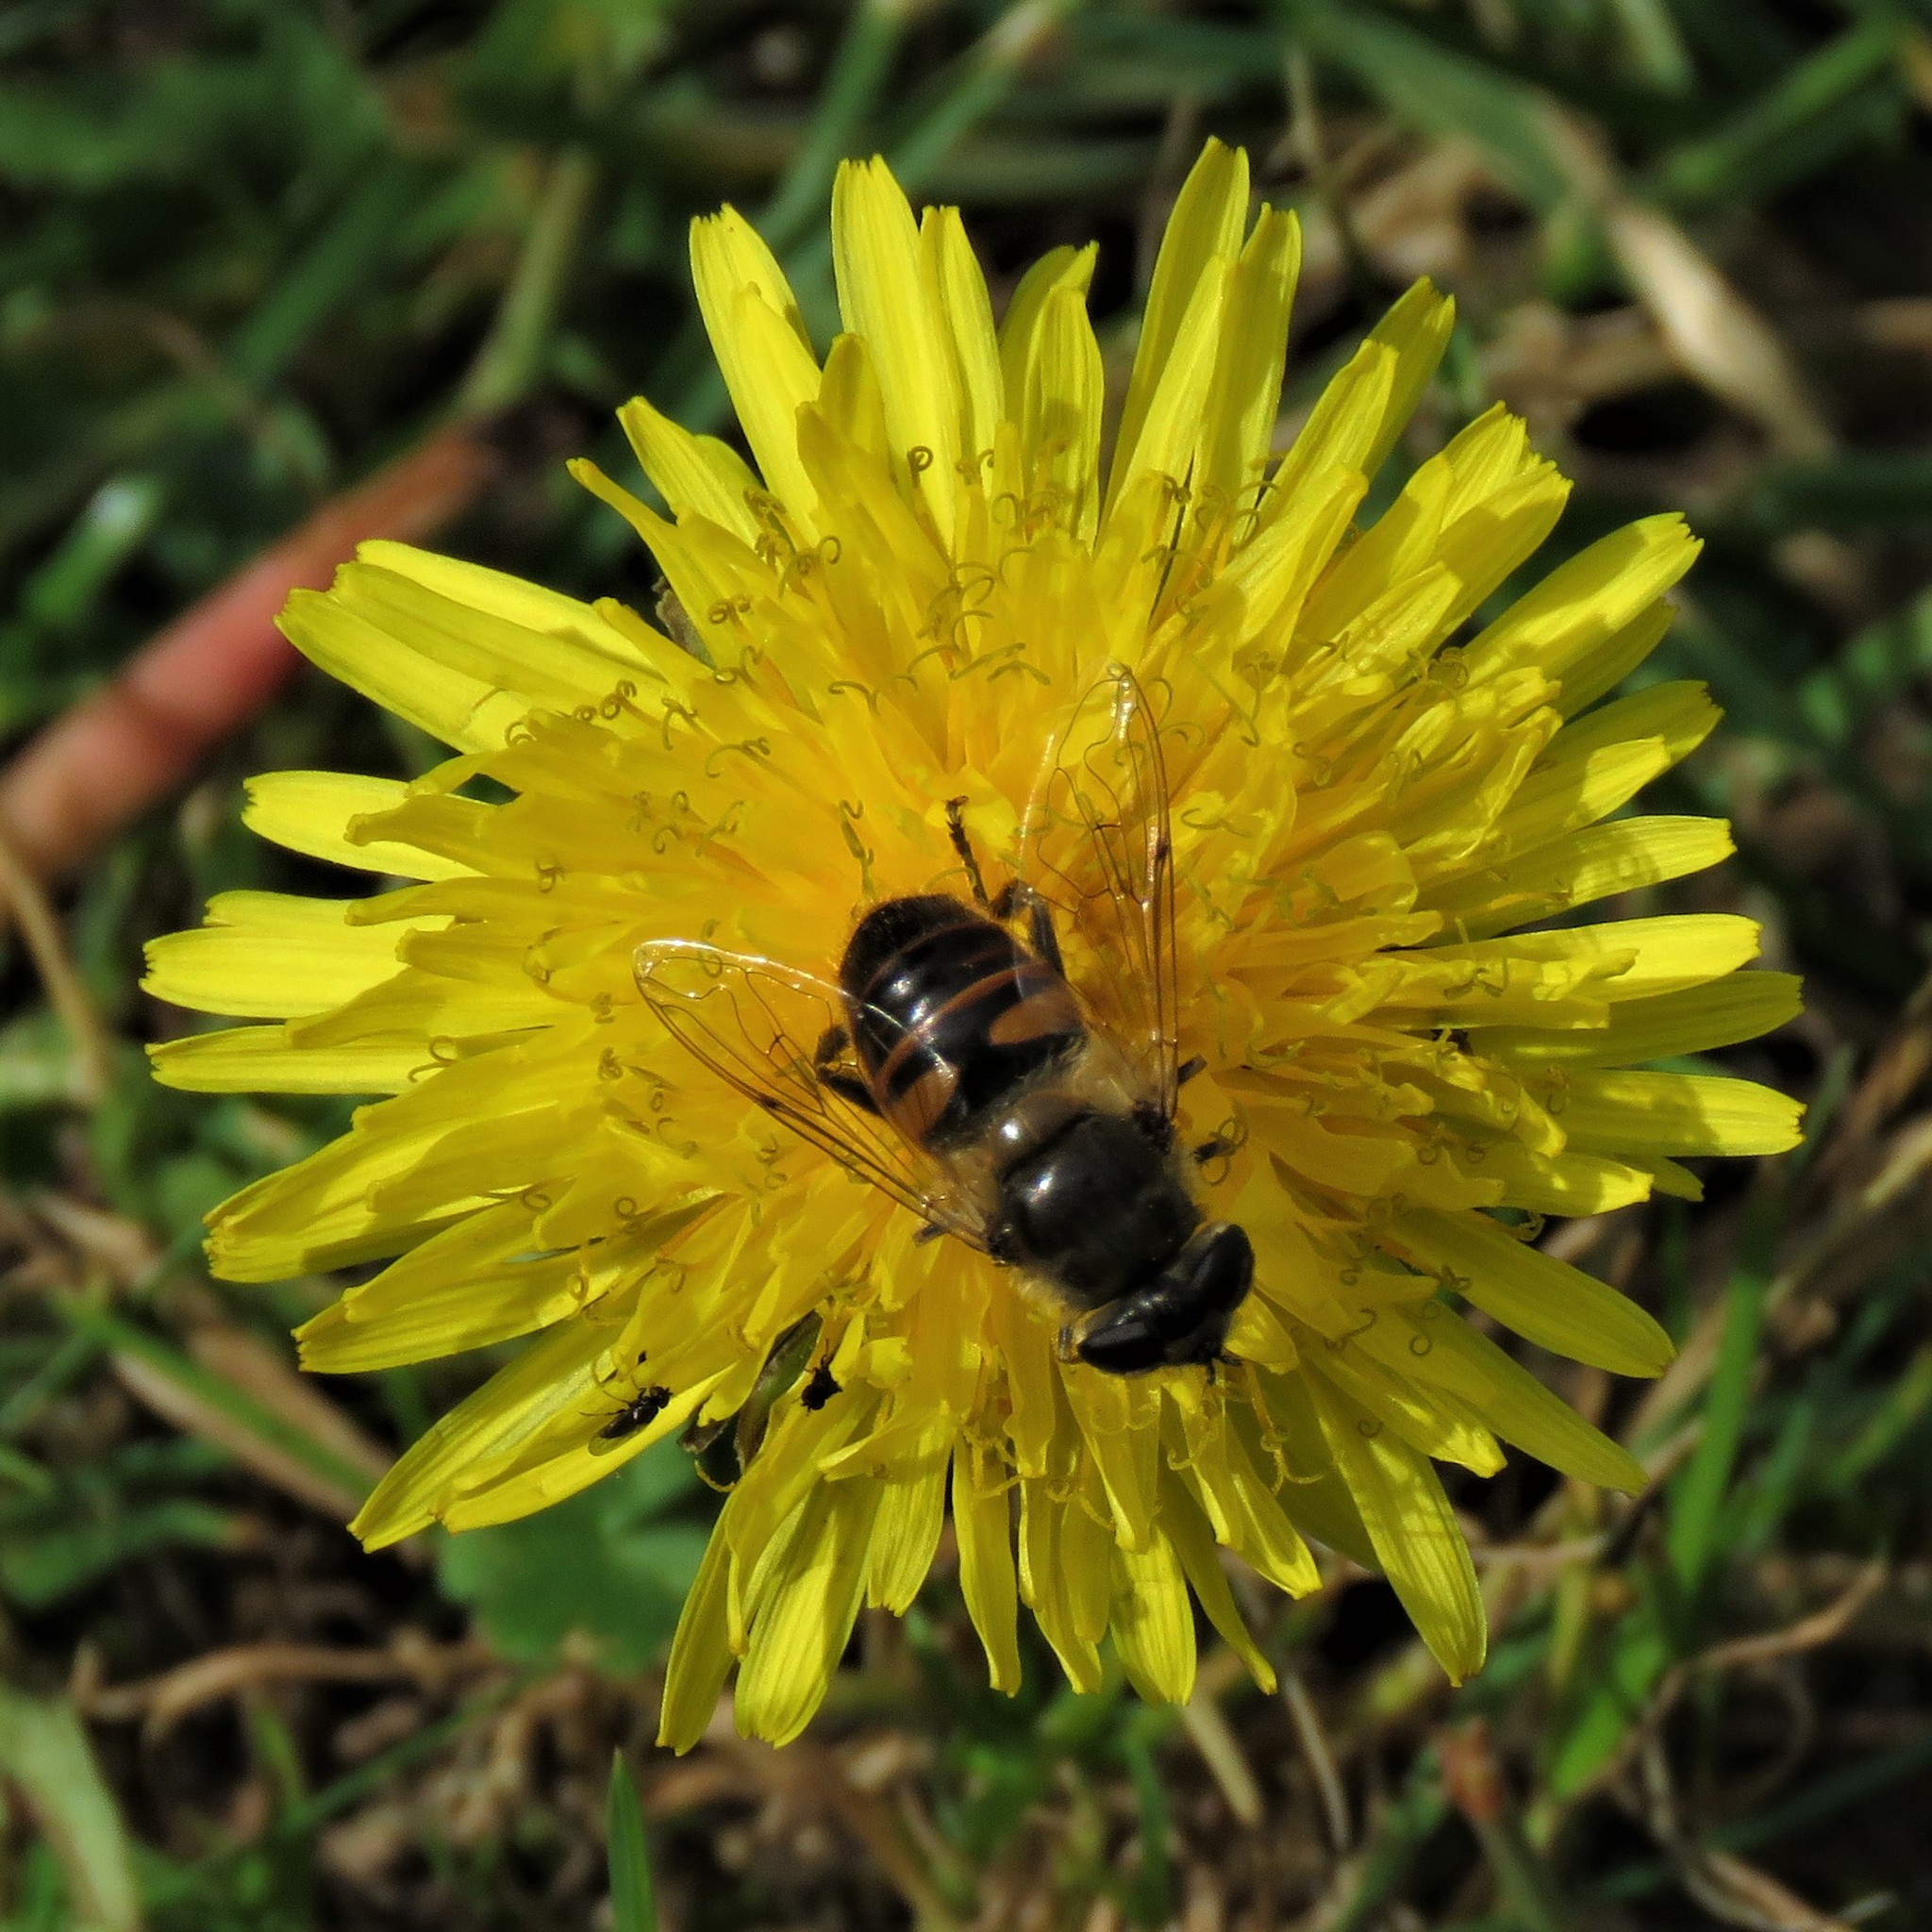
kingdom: Animalia
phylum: Arthropoda
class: Insecta
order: Diptera
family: Syrphidae
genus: Eristalis
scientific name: Eristalis tenax
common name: Drone fly
